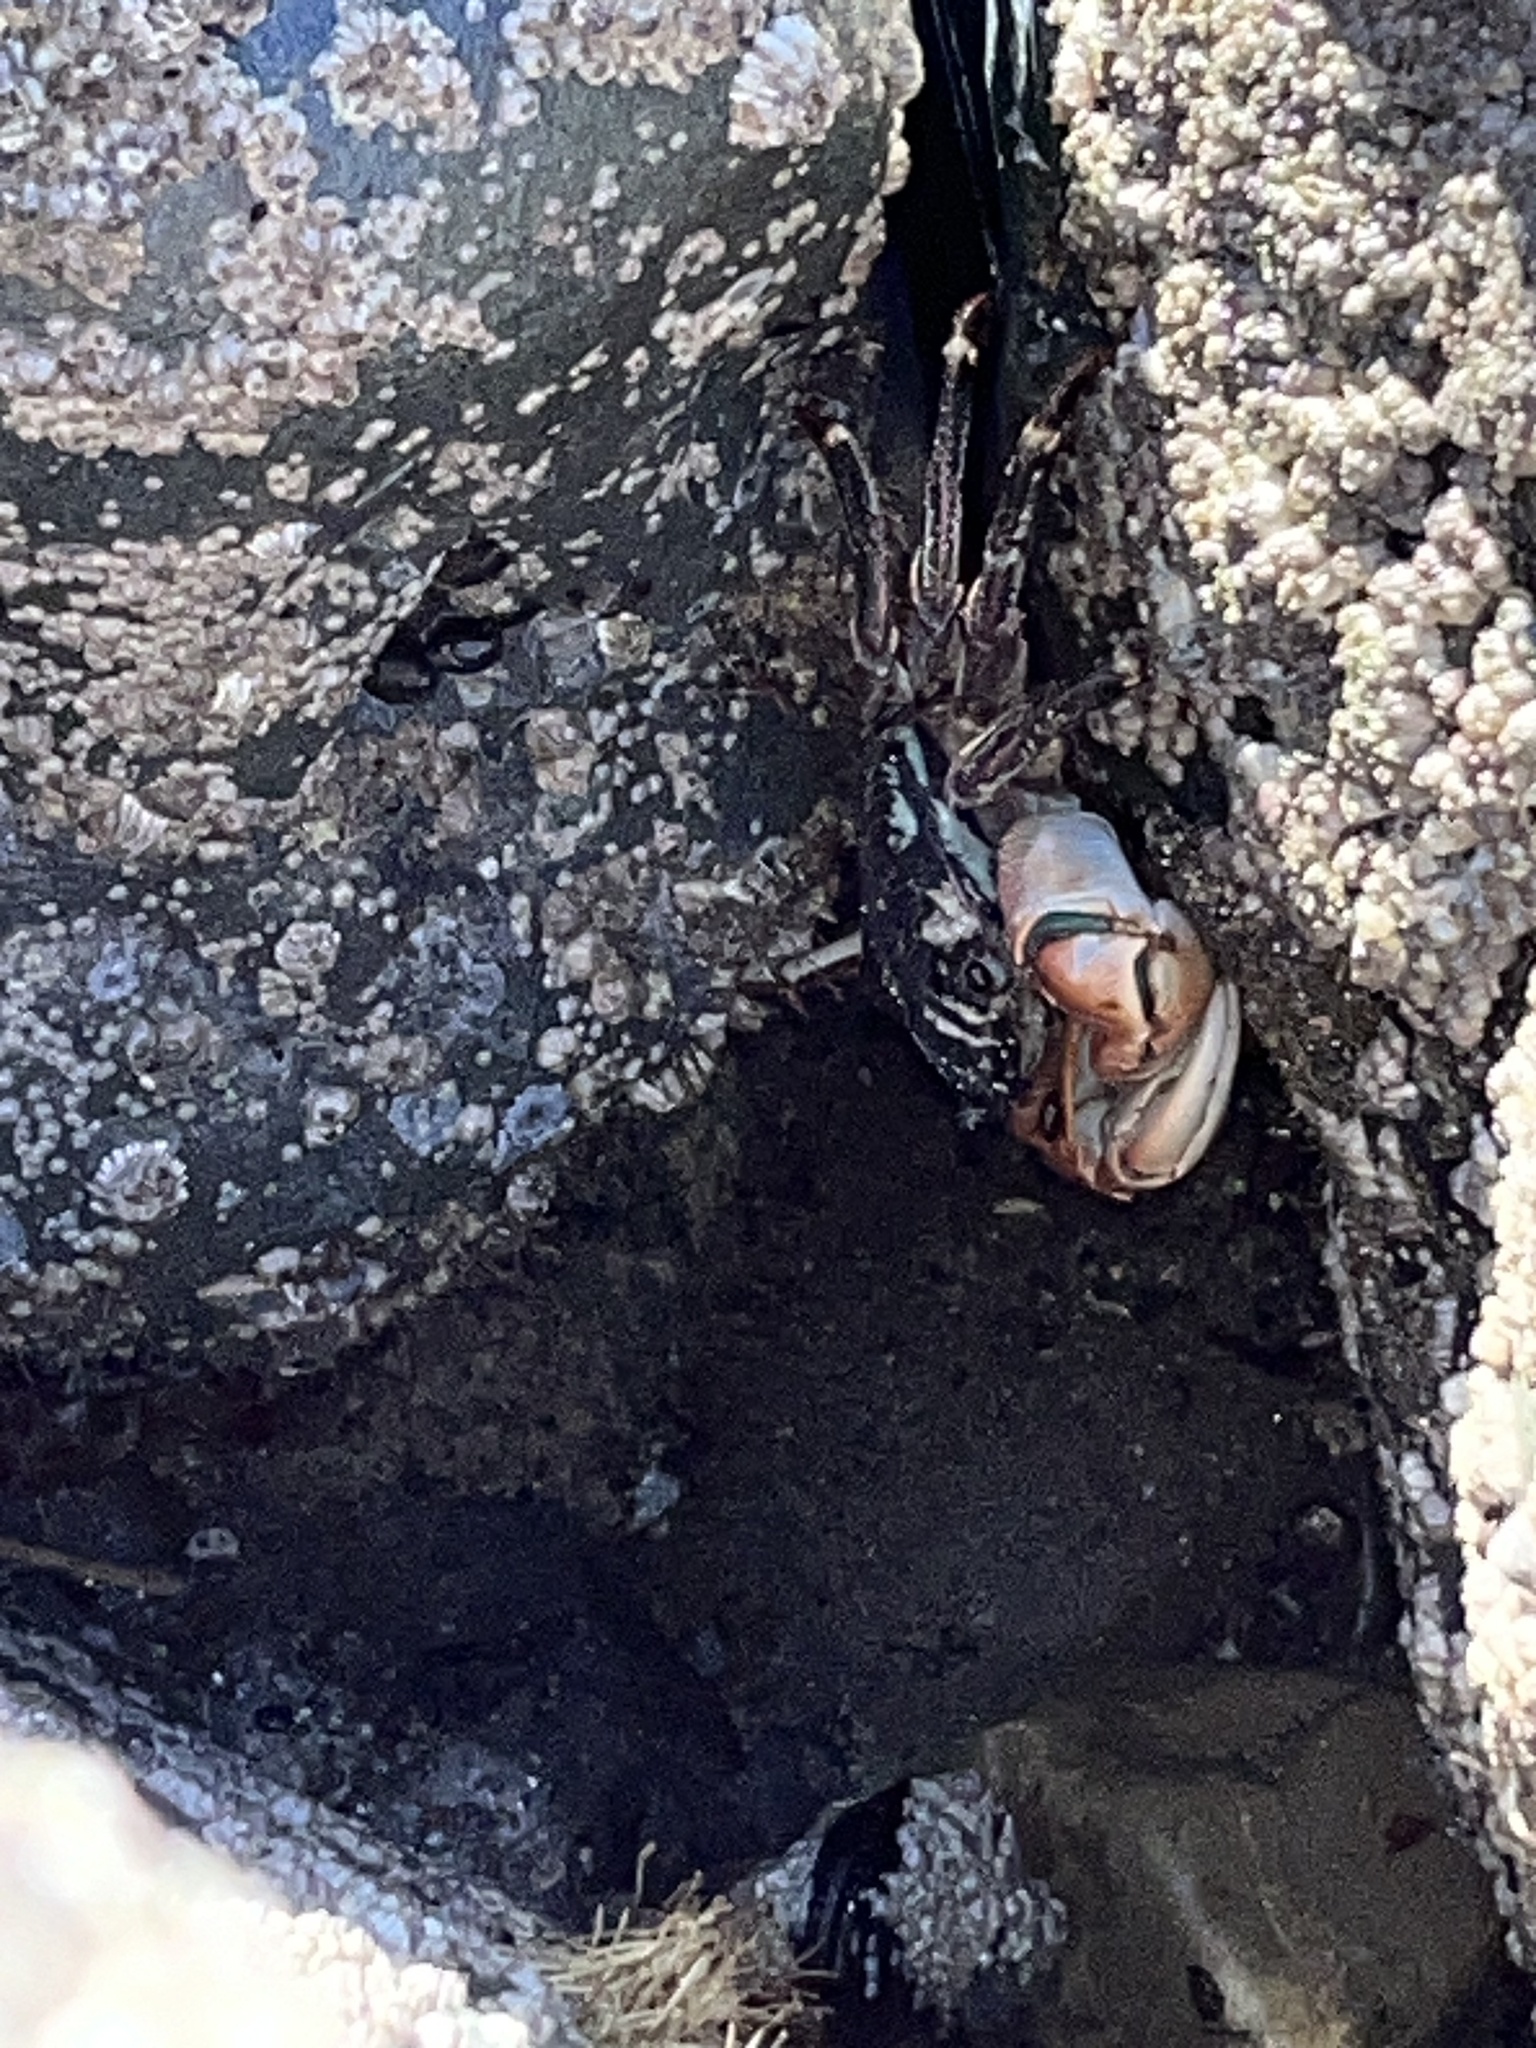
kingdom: Animalia
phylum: Arthropoda
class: Malacostraca
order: Decapoda
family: Grapsidae
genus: Pachygrapsus
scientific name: Pachygrapsus crassipes
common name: Striped shore crab
